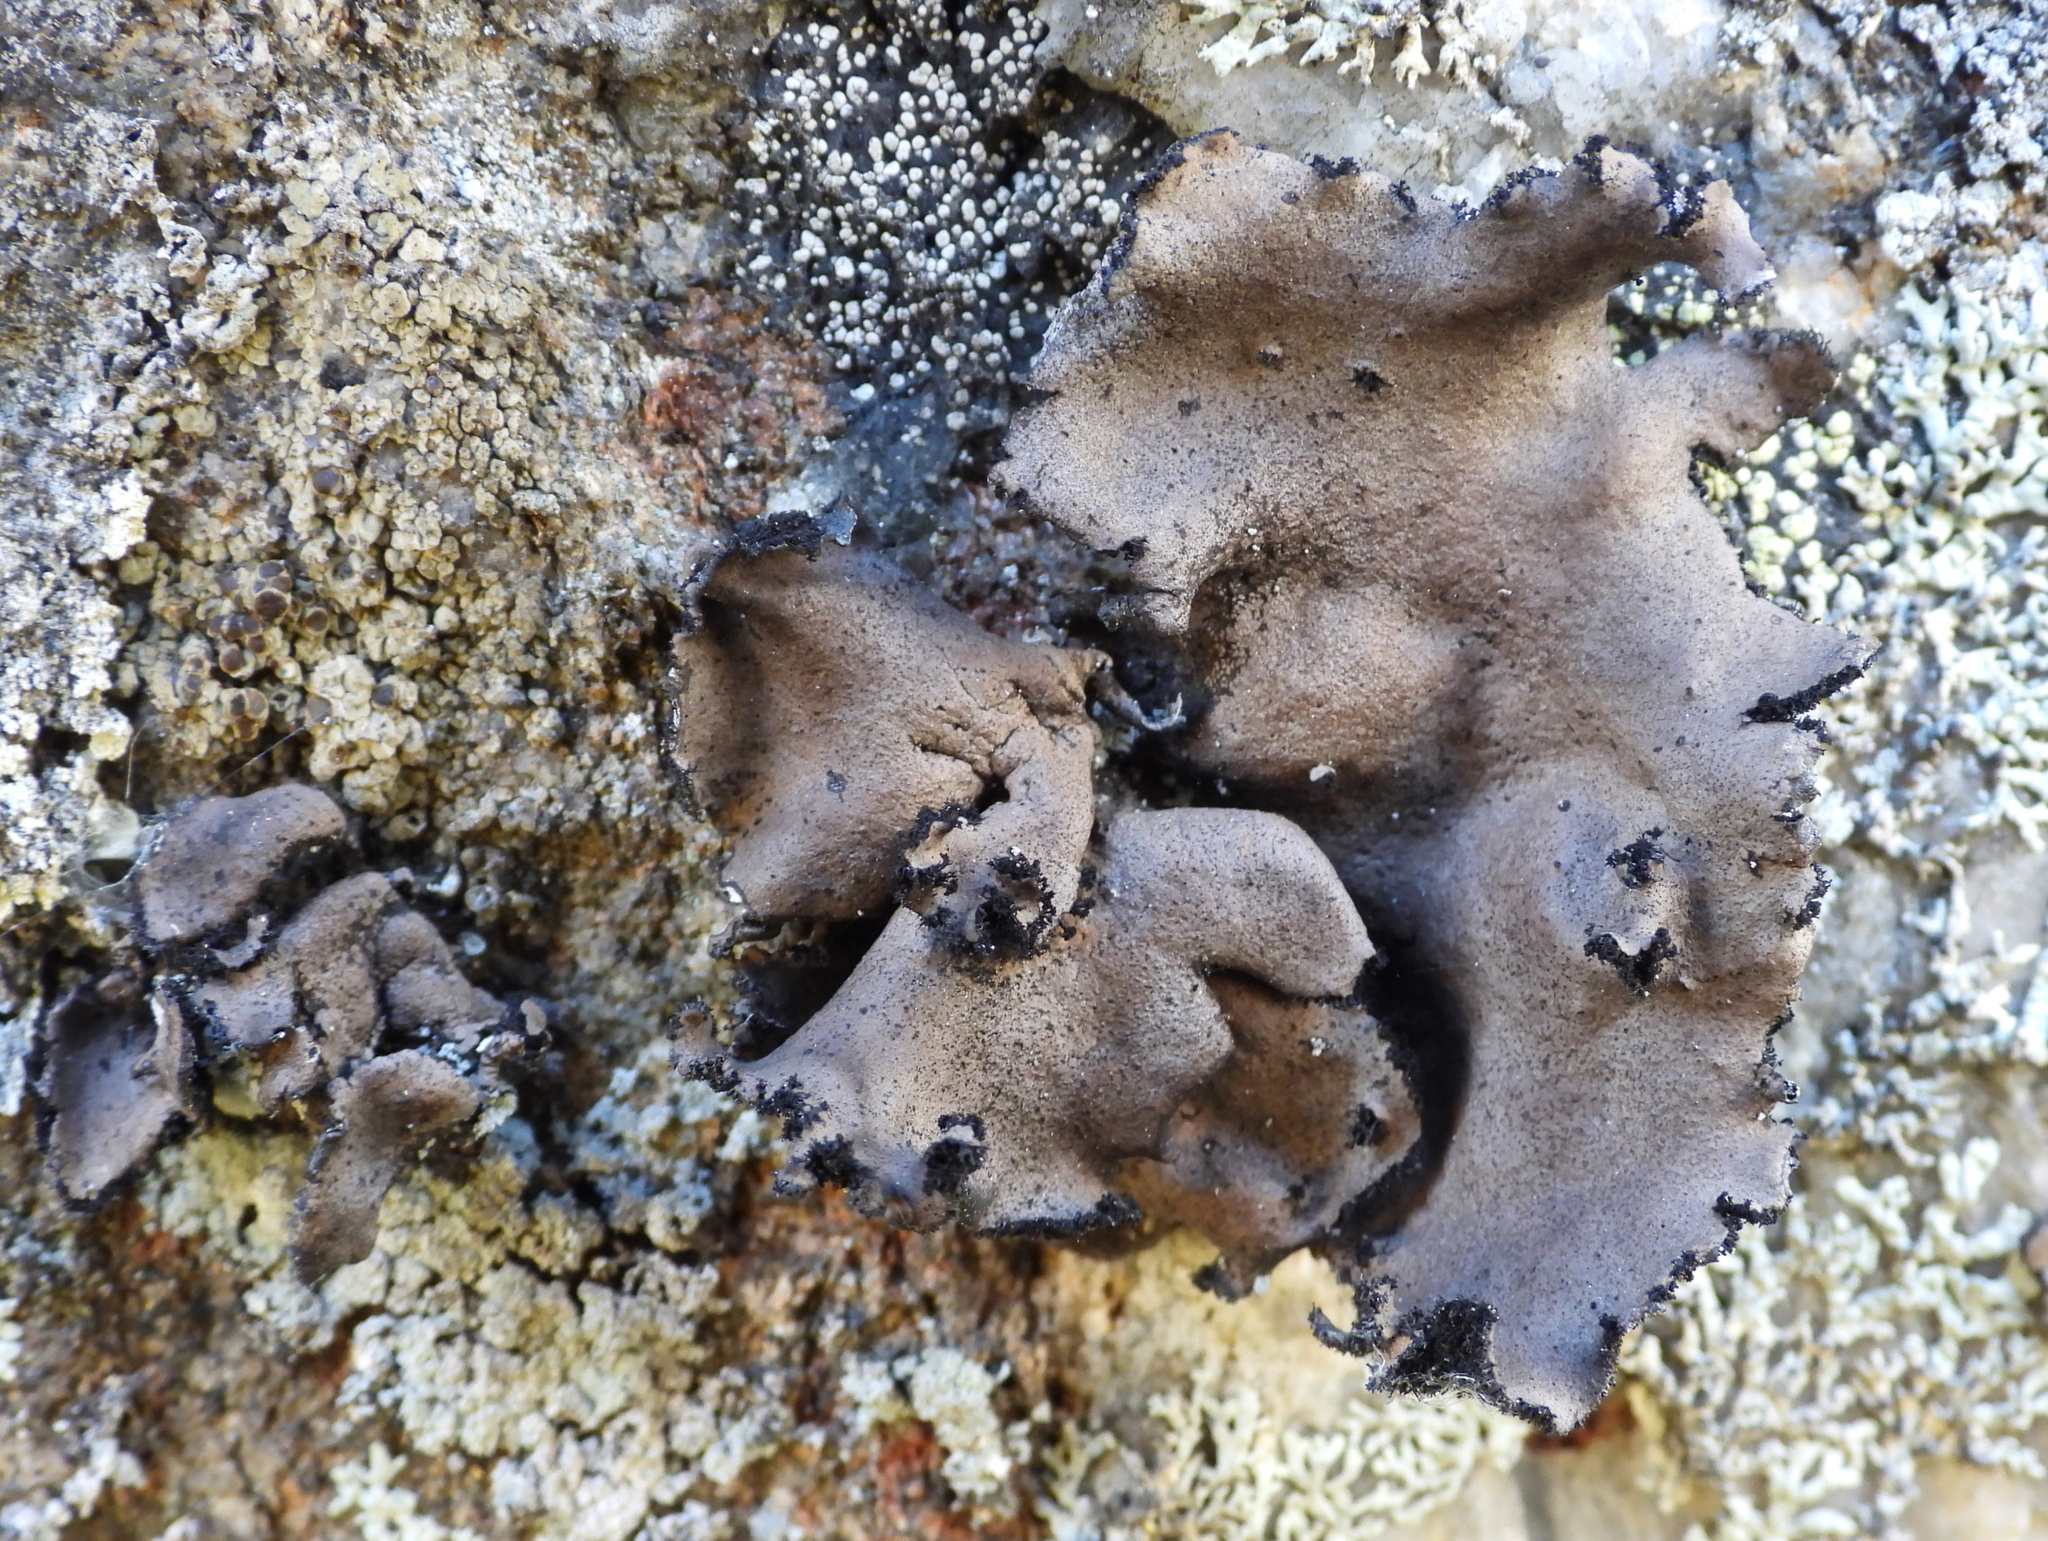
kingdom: Fungi
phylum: Ascomycota
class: Lecanoromycetes
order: Umbilicariales
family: Umbilicariaceae
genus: Umbilicaria
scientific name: Umbilicaria polyrrhiza
